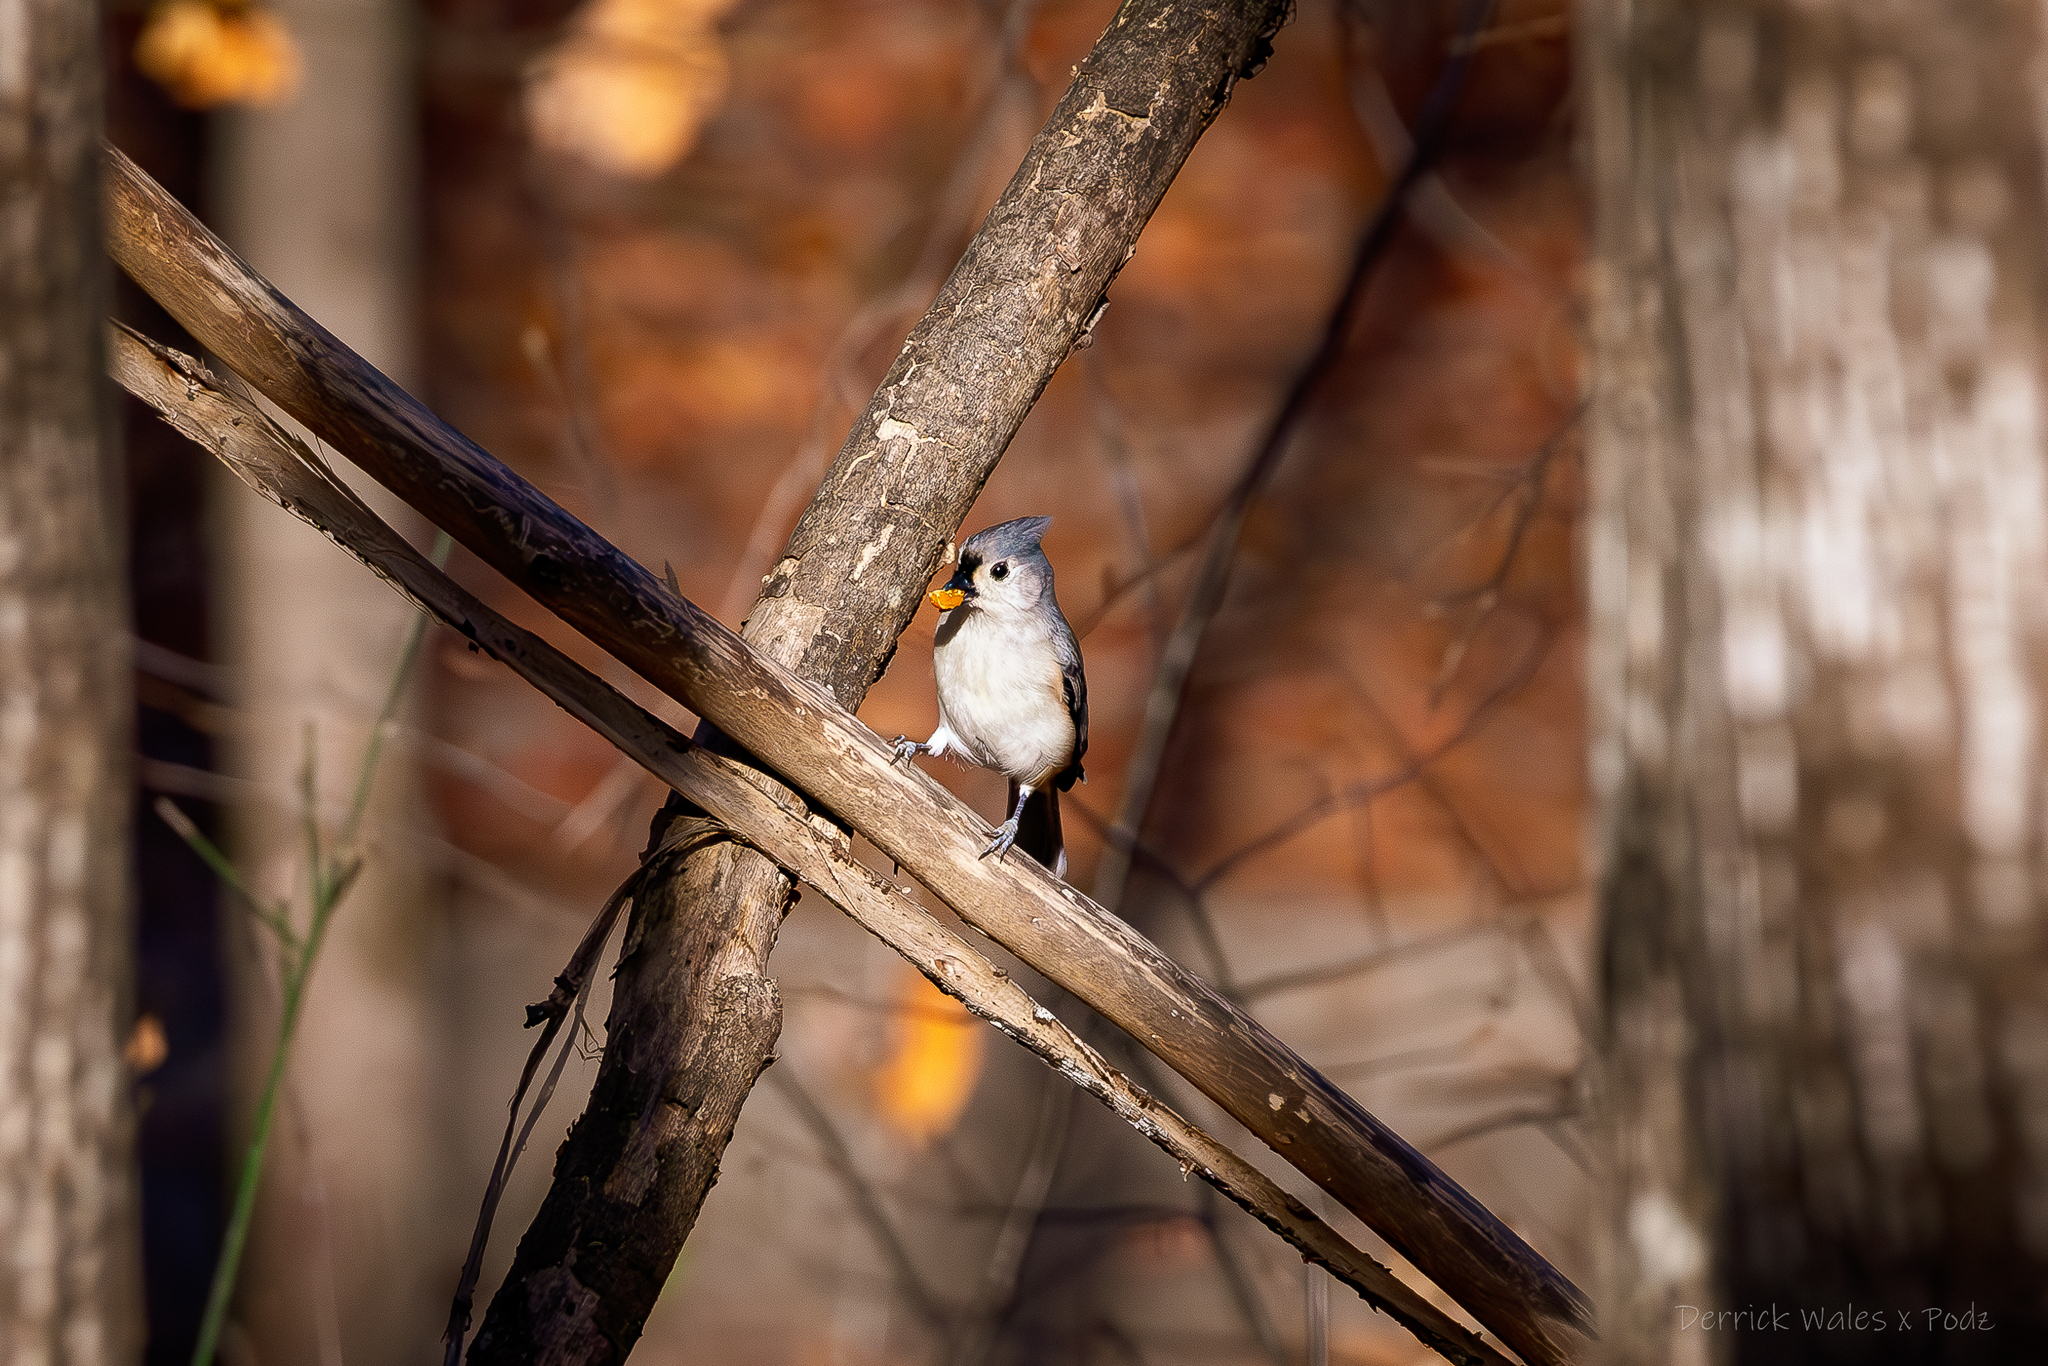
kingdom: Animalia
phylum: Chordata
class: Aves
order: Passeriformes
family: Paridae
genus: Baeolophus
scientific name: Baeolophus bicolor
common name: Tufted titmouse
